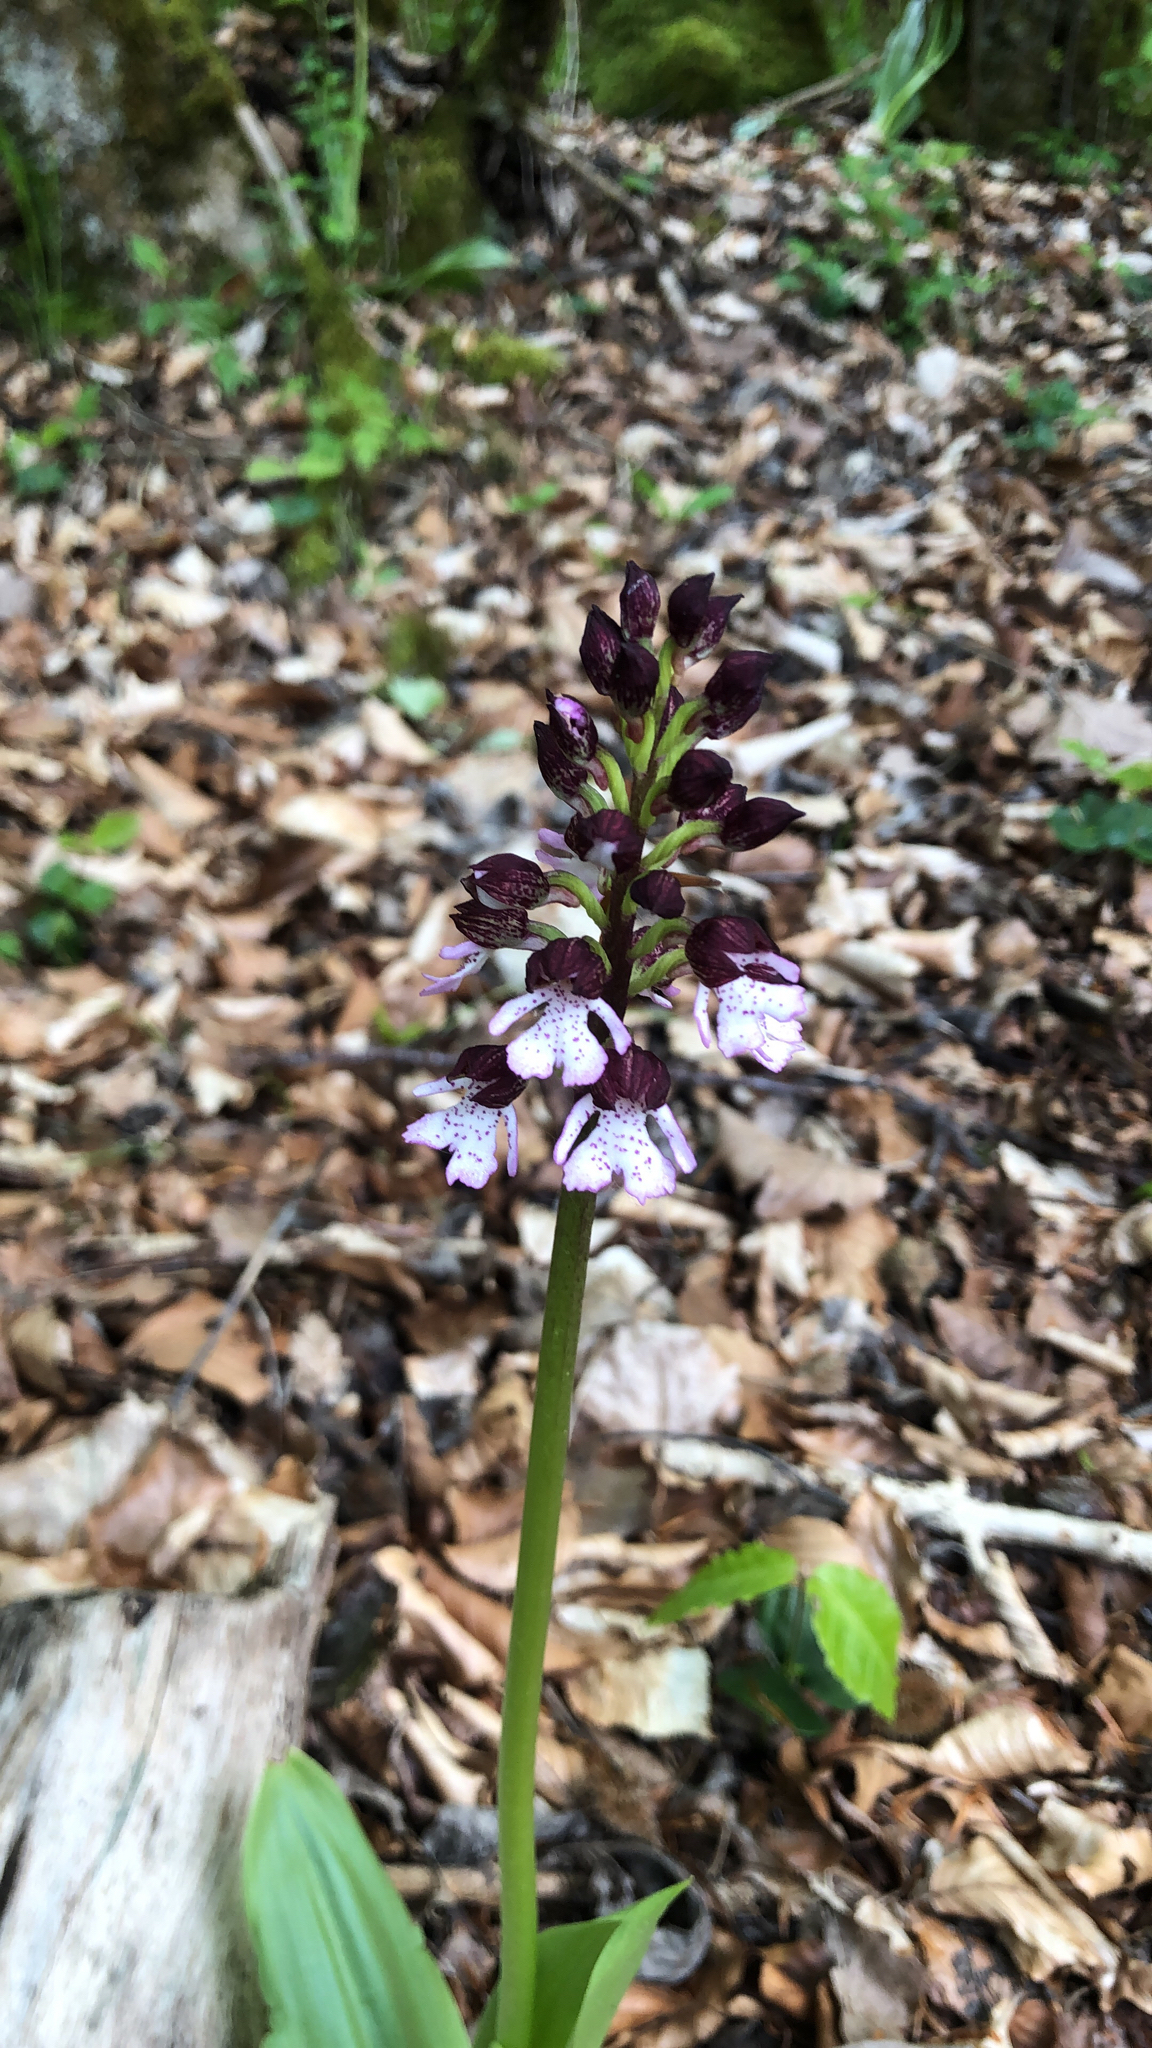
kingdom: Plantae
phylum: Tracheophyta
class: Liliopsida
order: Asparagales
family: Orchidaceae
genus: Orchis
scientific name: Orchis purpurea
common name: Lady orchid
